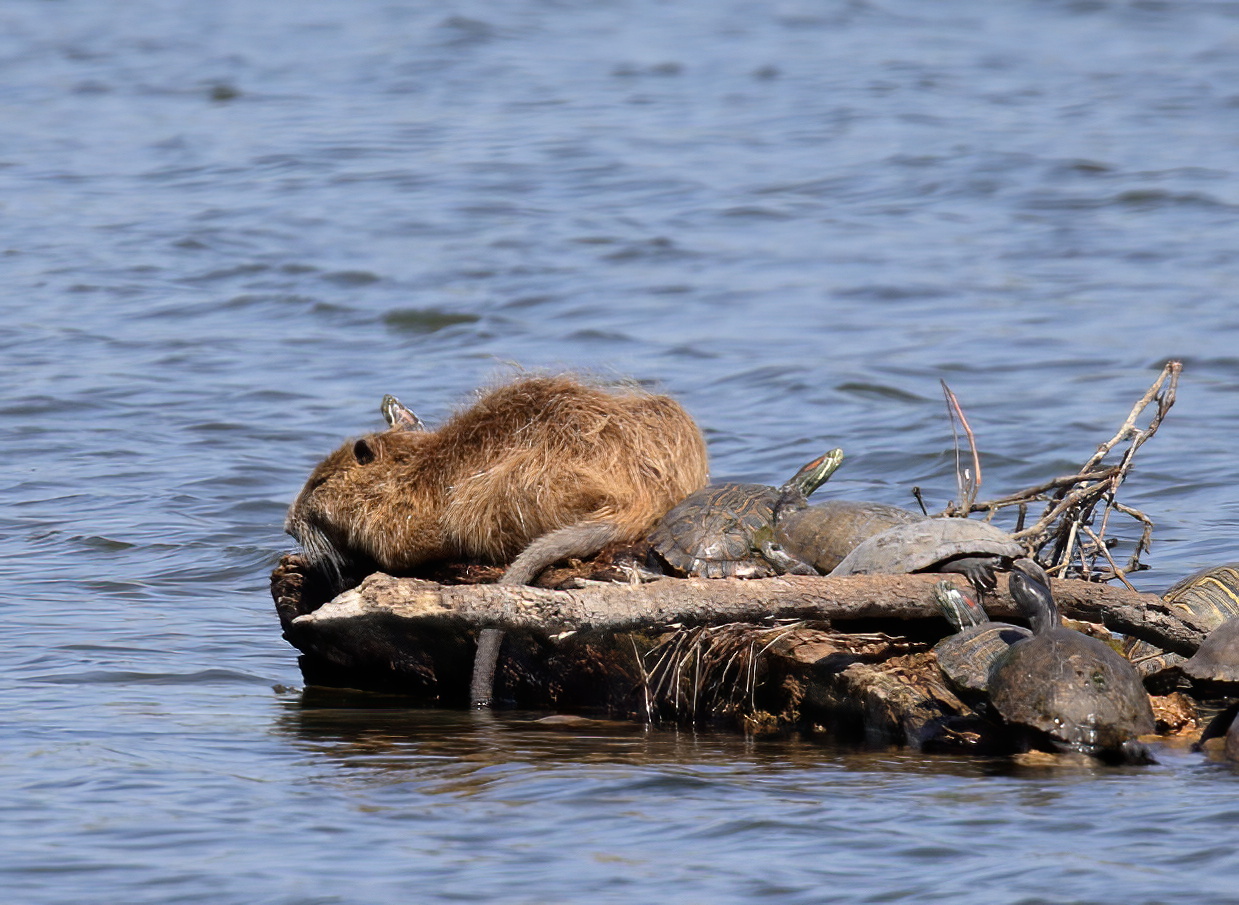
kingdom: Animalia
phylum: Chordata
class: Testudines
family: Emydidae
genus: Trachemys
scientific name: Trachemys scripta
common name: Slider
